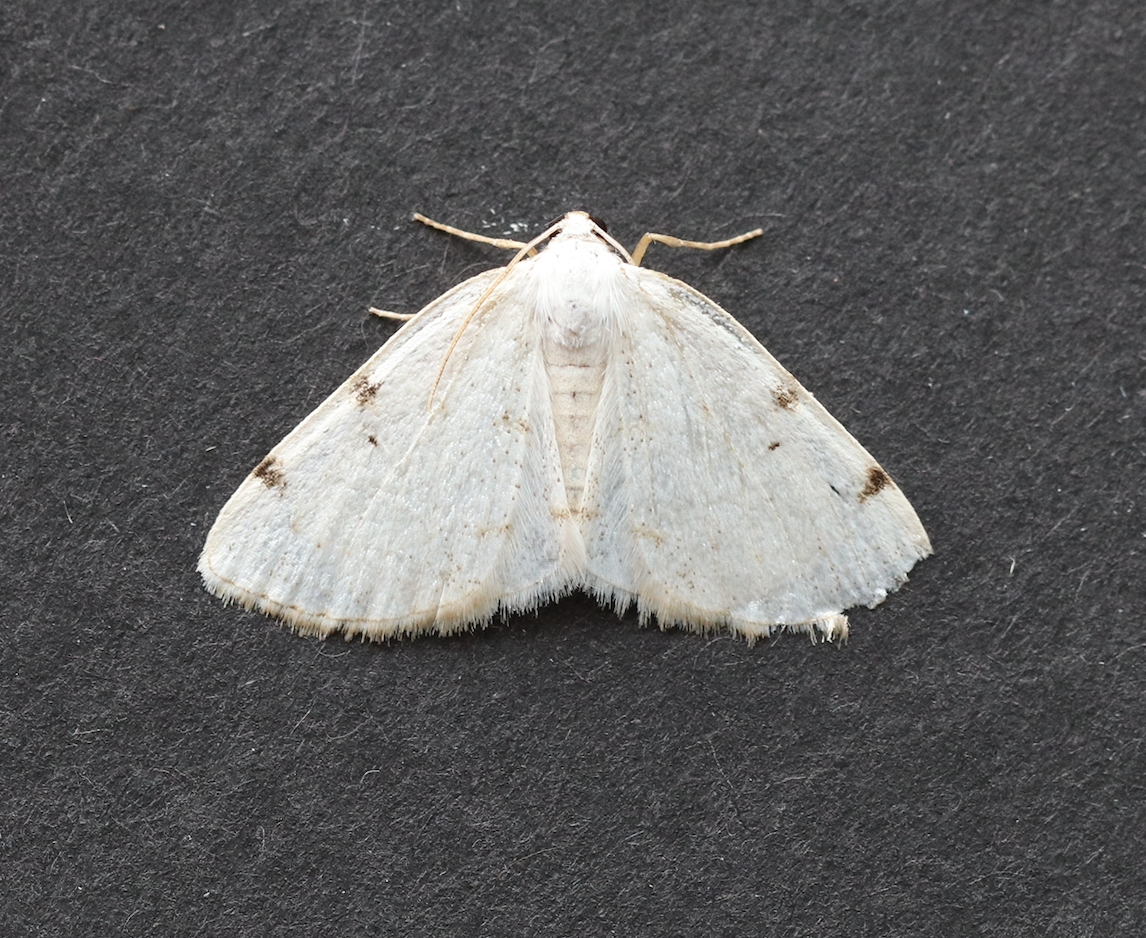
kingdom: Animalia
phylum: Arthropoda
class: Insecta
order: Lepidoptera
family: Geometridae
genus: Lomographa
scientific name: Lomographa bimaculata
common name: White-pinion spotted
